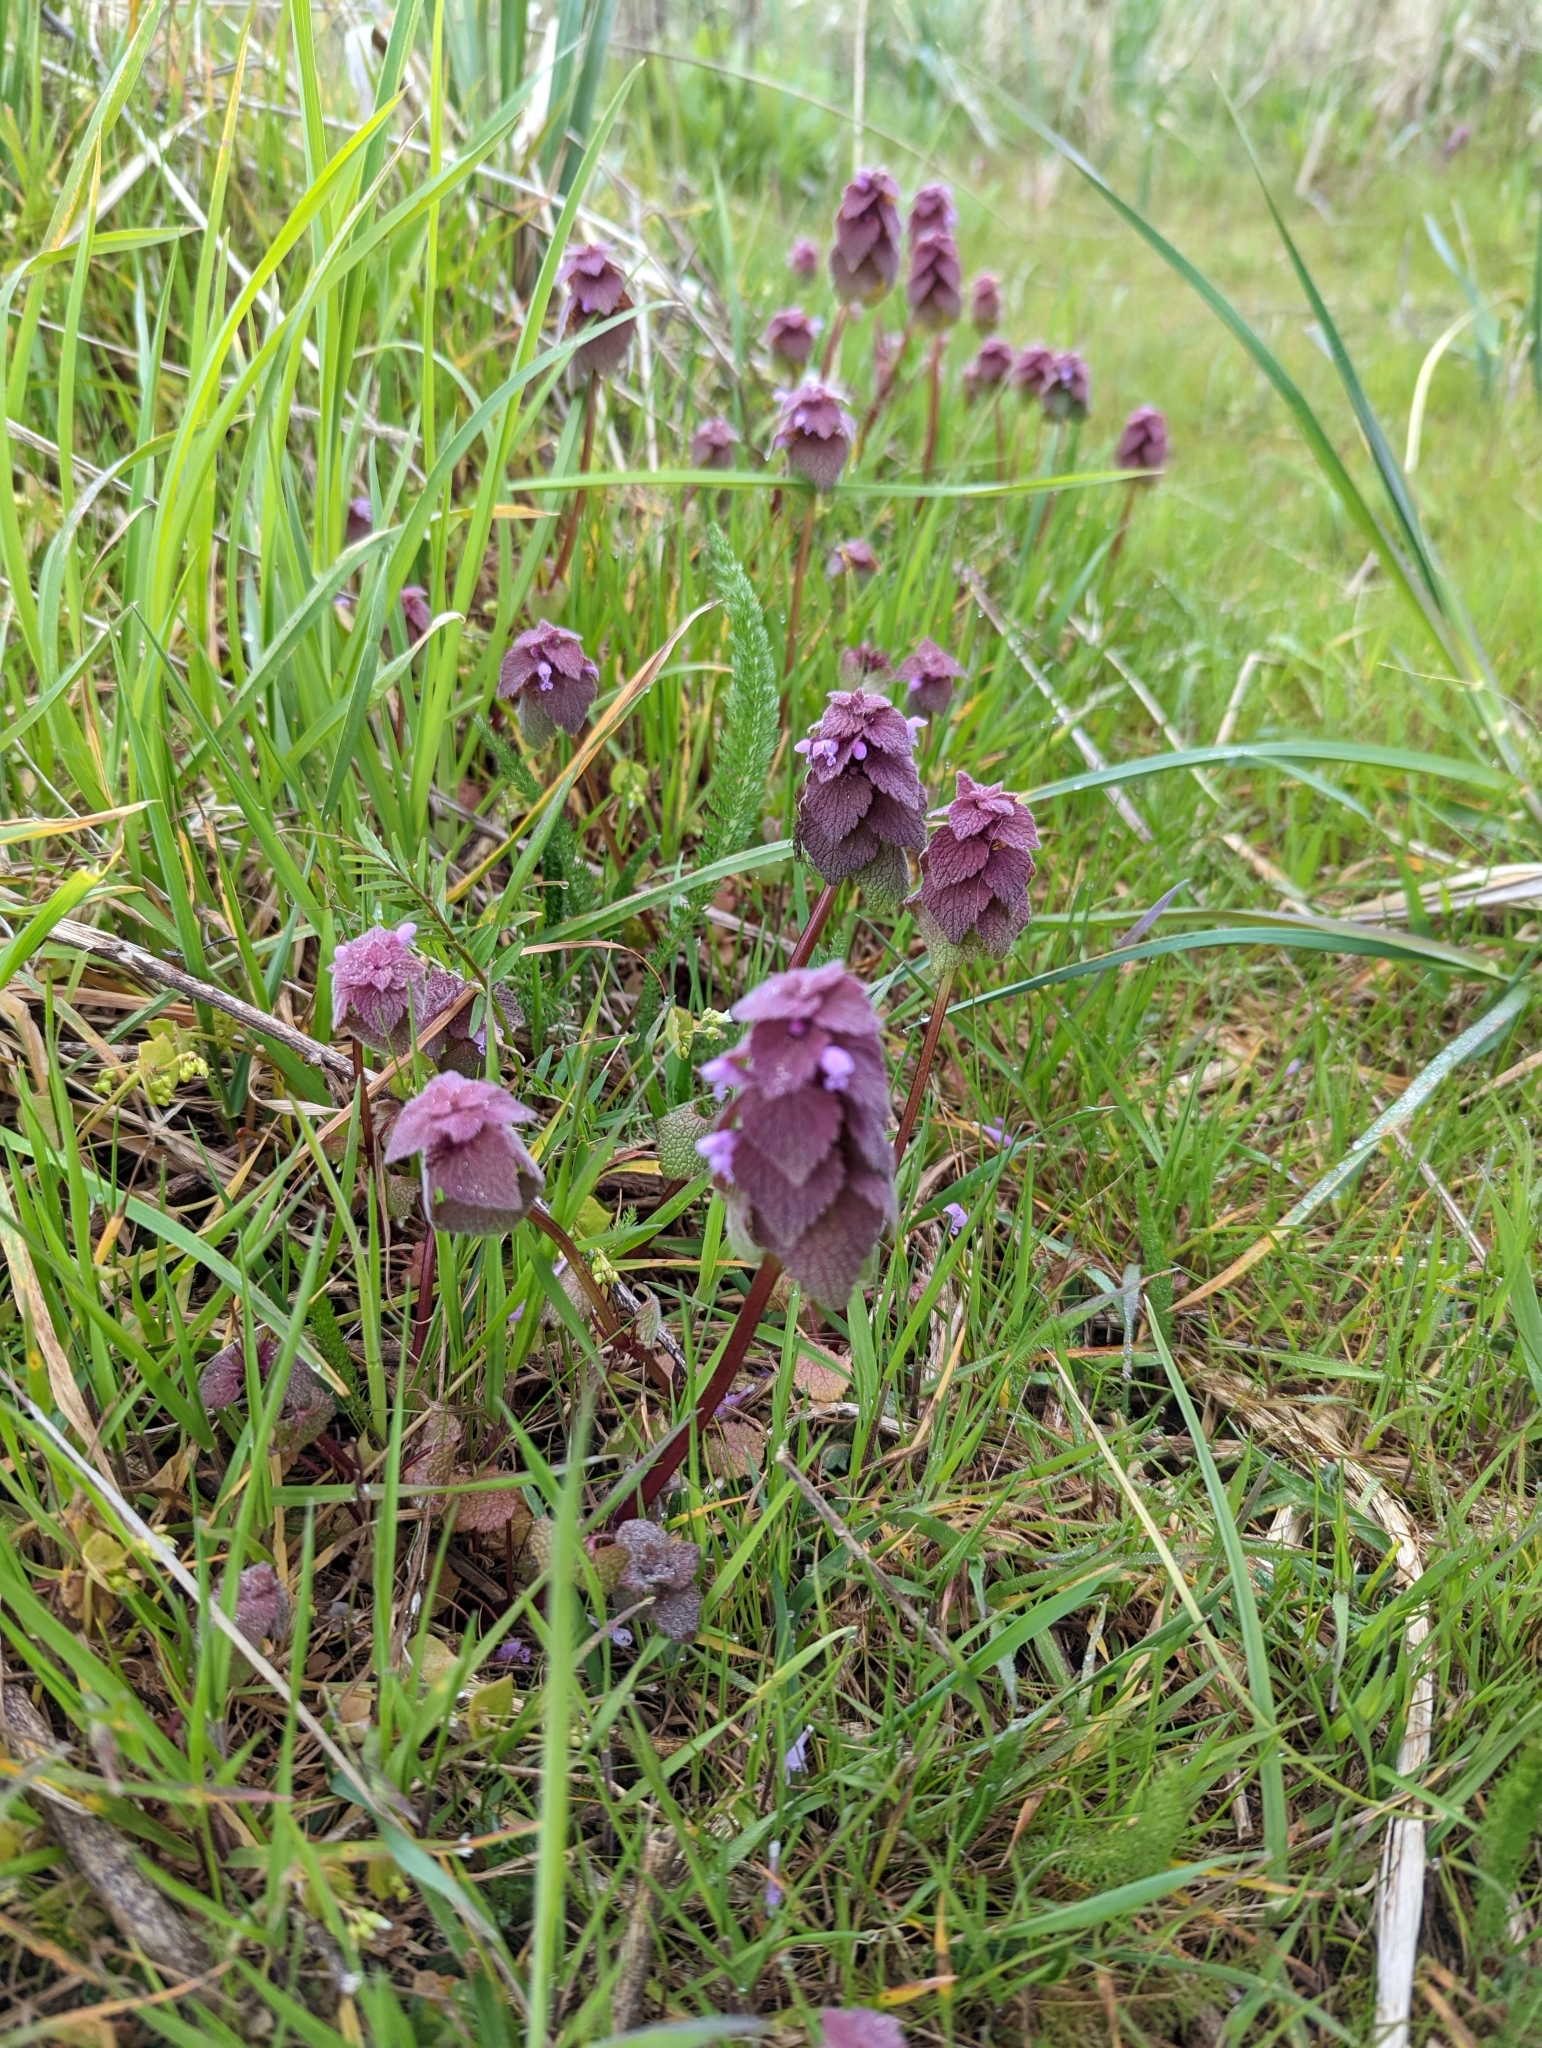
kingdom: Plantae
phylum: Tracheophyta
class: Magnoliopsida
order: Lamiales
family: Lamiaceae
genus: Lamium
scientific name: Lamium purpureum
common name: Red dead-nettle
